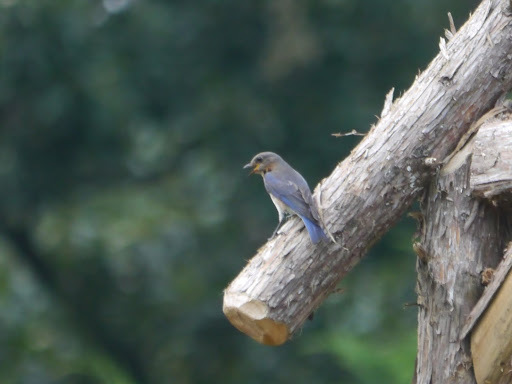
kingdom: Animalia
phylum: Chordata
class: Aves
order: Passeriformes
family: Turdidae
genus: Sialia
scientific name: Sialia sialis
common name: Eastern bluebird
